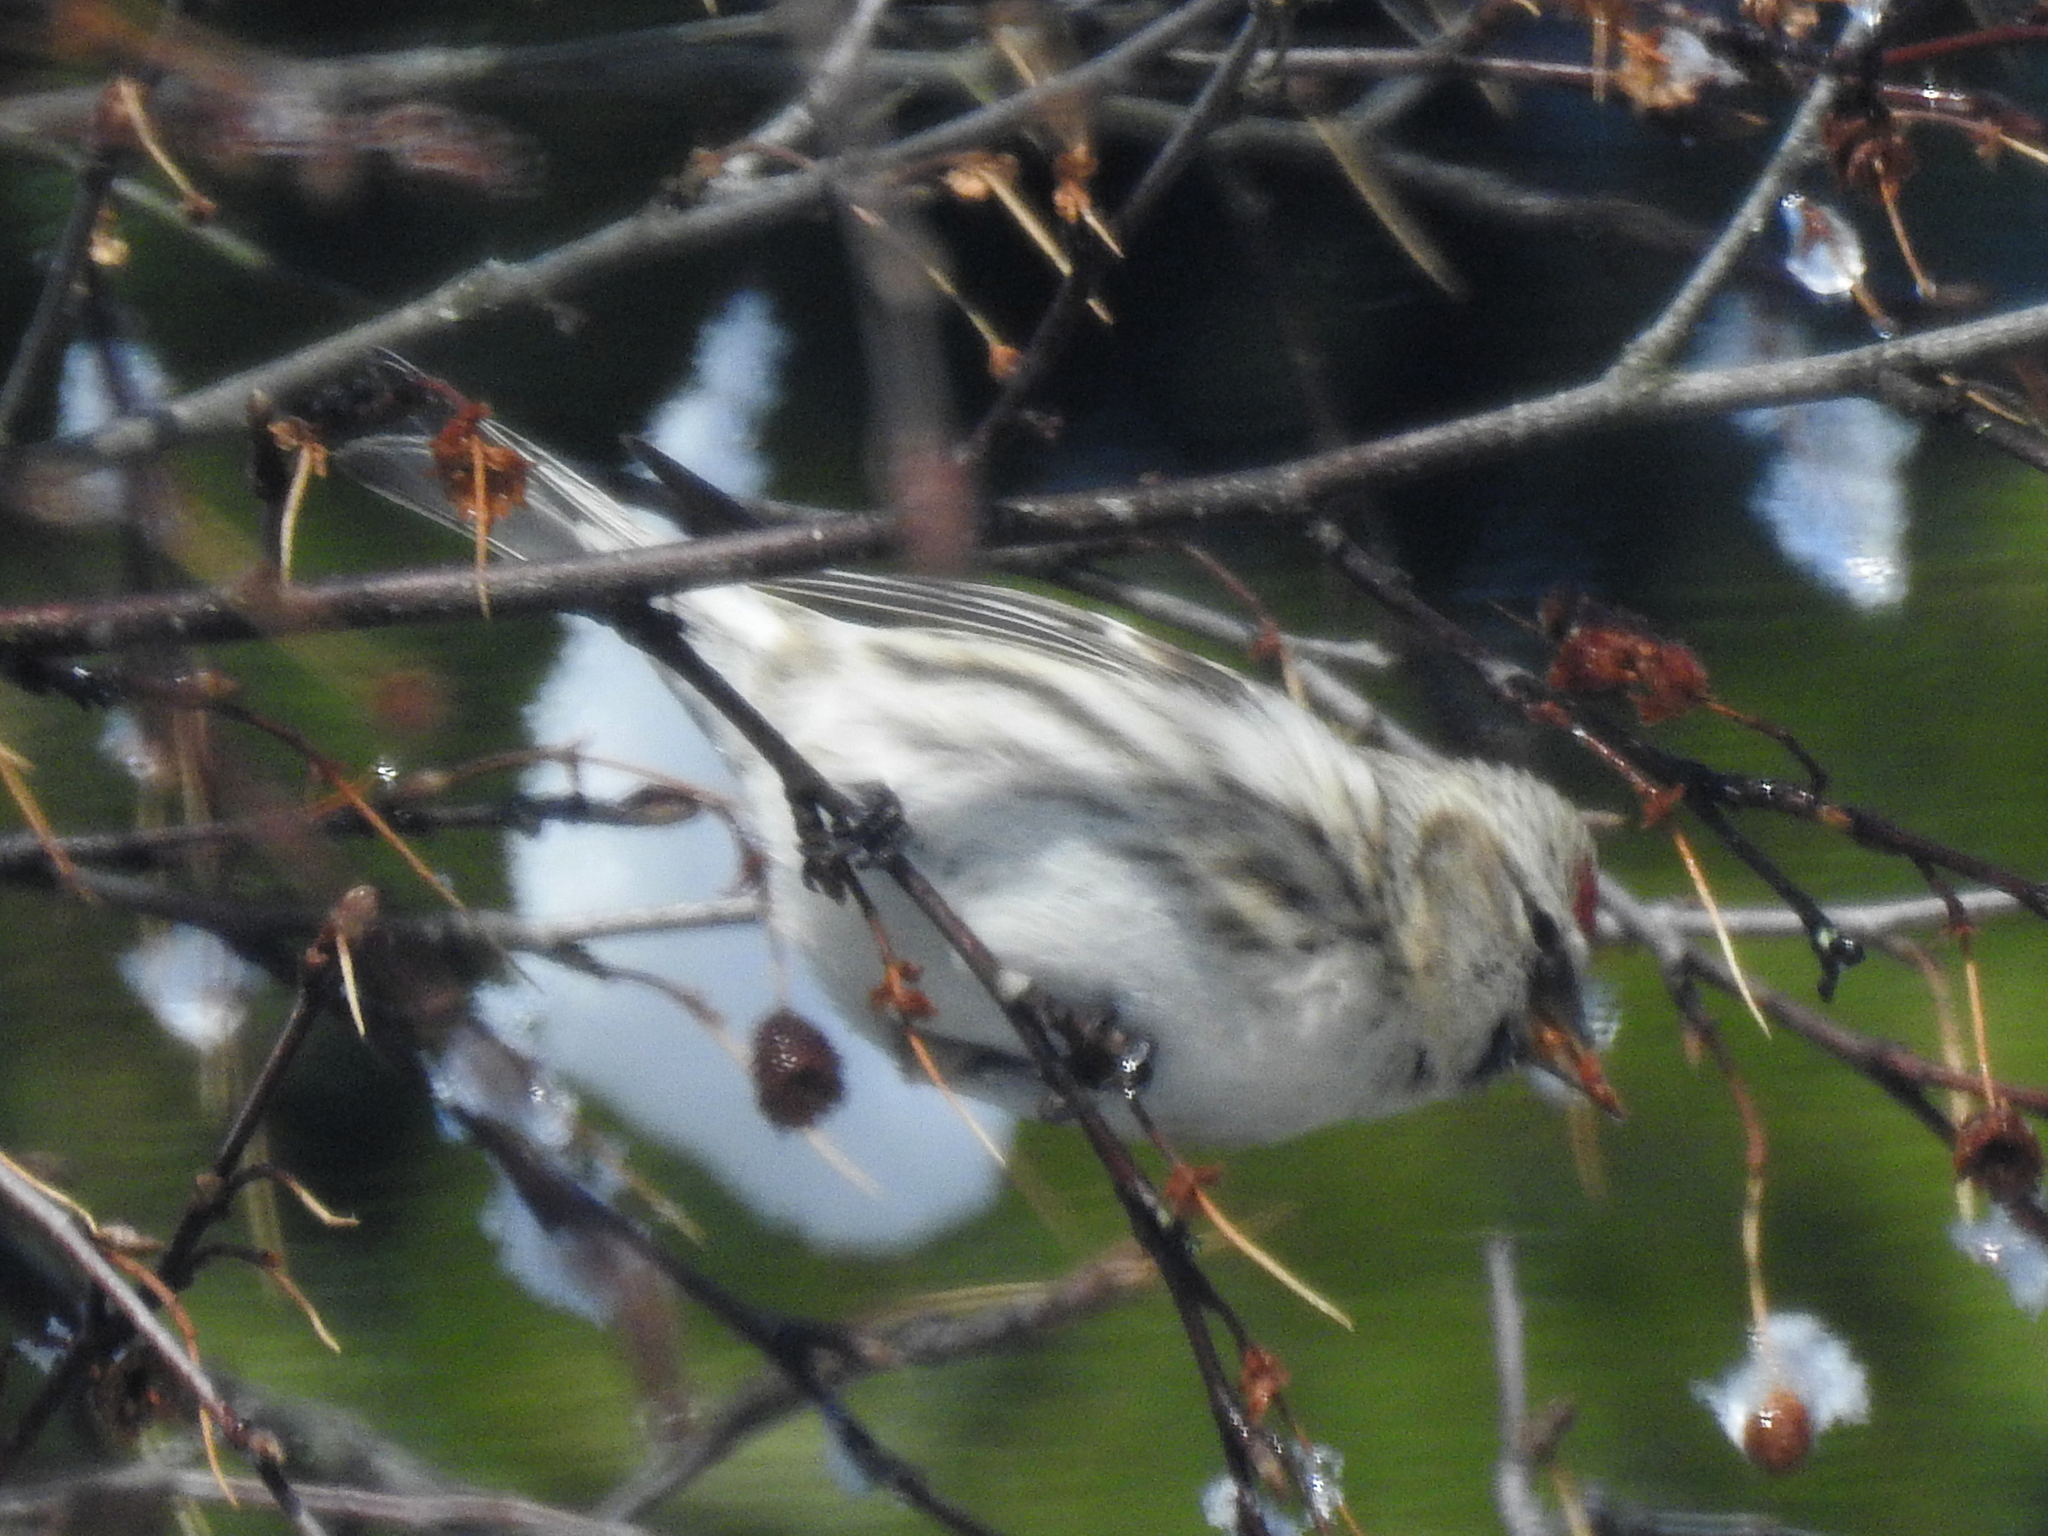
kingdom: Animalia
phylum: Chordata
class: Aves
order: Passeriformes
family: Fringillidae
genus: Acanthis
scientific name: Acanthis flammea
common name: Common redpoll
